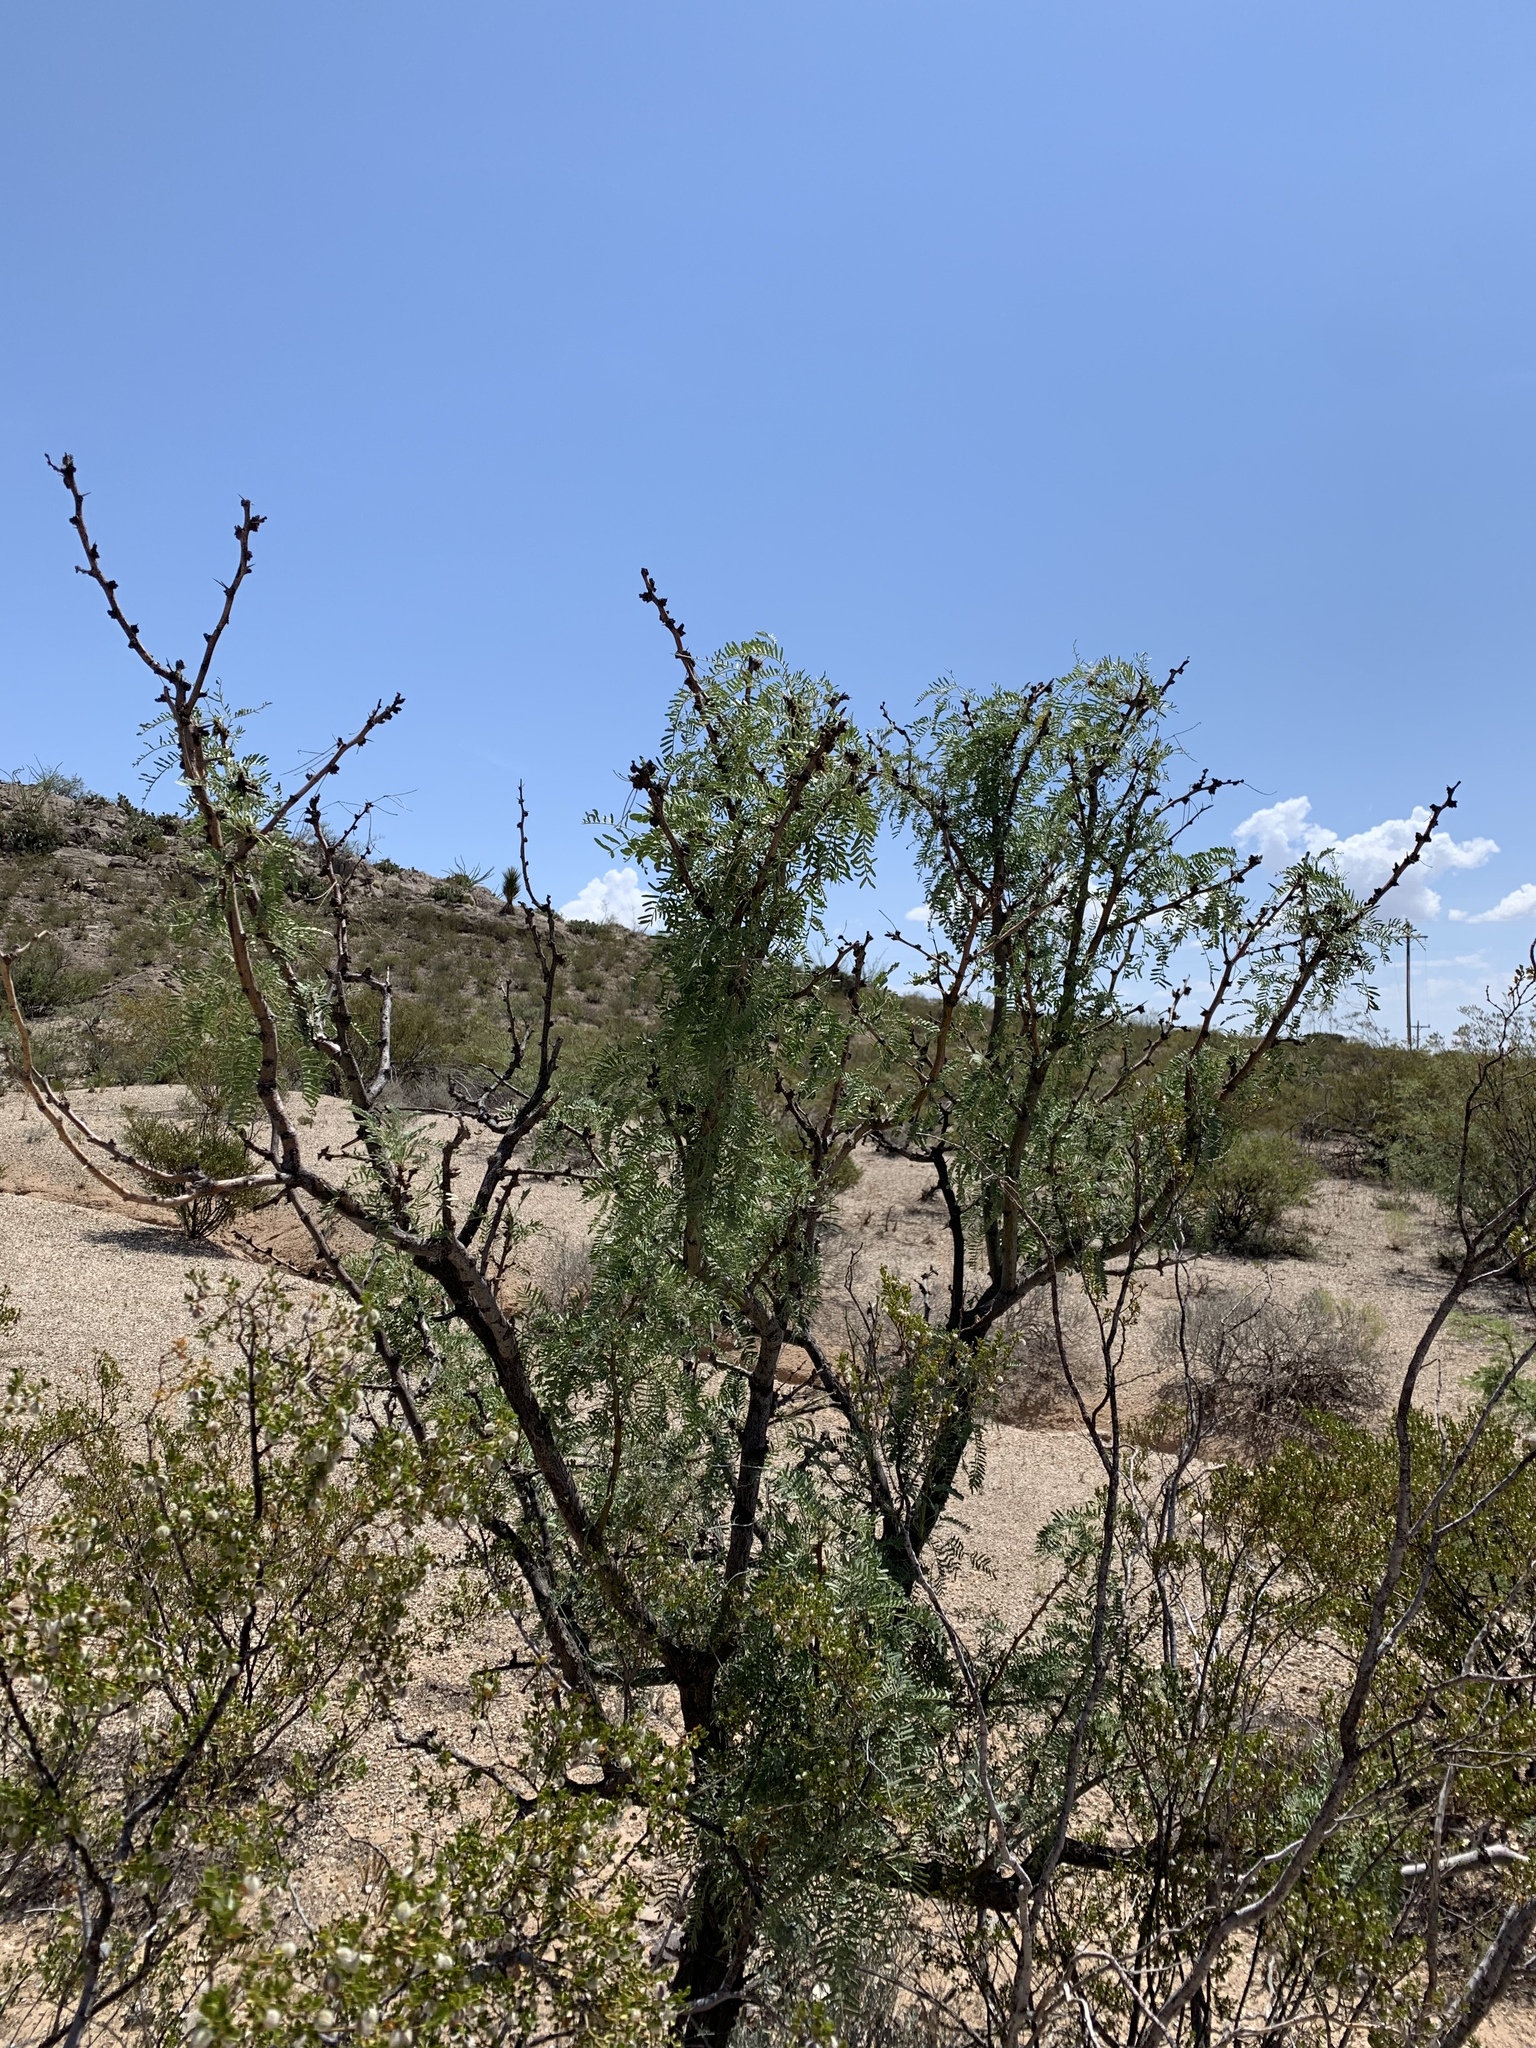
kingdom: Plantae
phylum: Tracheophyta
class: Magnoliopsida
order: Fabales
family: Fabaceae
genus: Prosopis
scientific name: Prosopis glandulosa
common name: Honey mesquite
